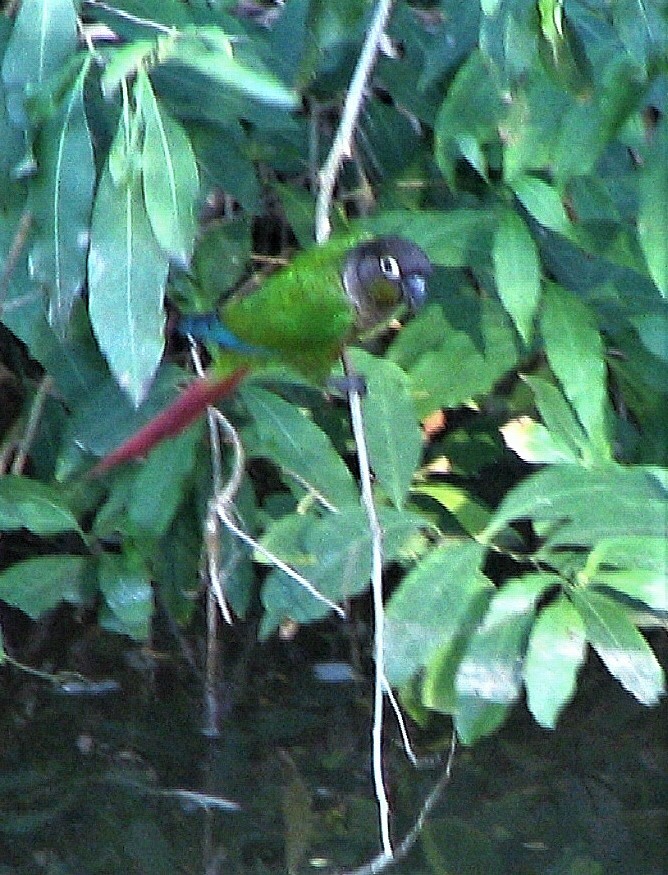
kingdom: Animalia
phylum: Chordata
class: Aves
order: Psittaciformes
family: Psittacidae
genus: Pyrrhura
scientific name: Pyrrhura molinae
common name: Green-cheeked parakeet
